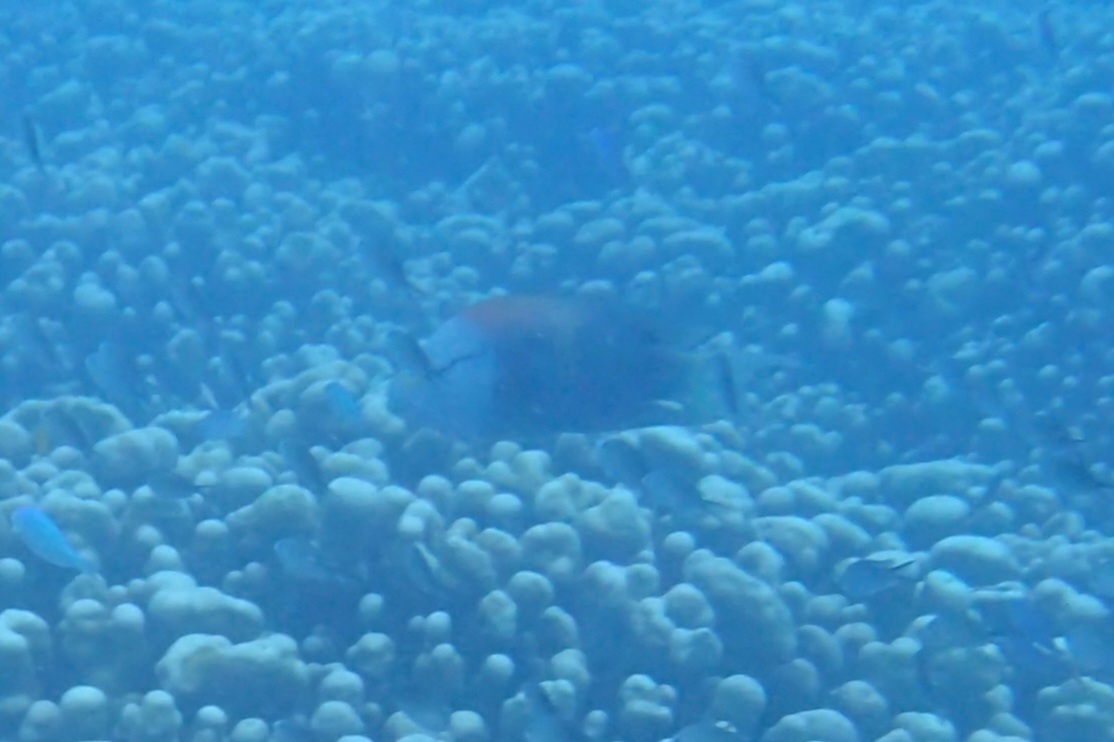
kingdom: Animalia
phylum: Chordata
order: Perciformes
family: Labridae
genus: Epibulus
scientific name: Epibulus insidiator
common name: Slingjaw wrasse
